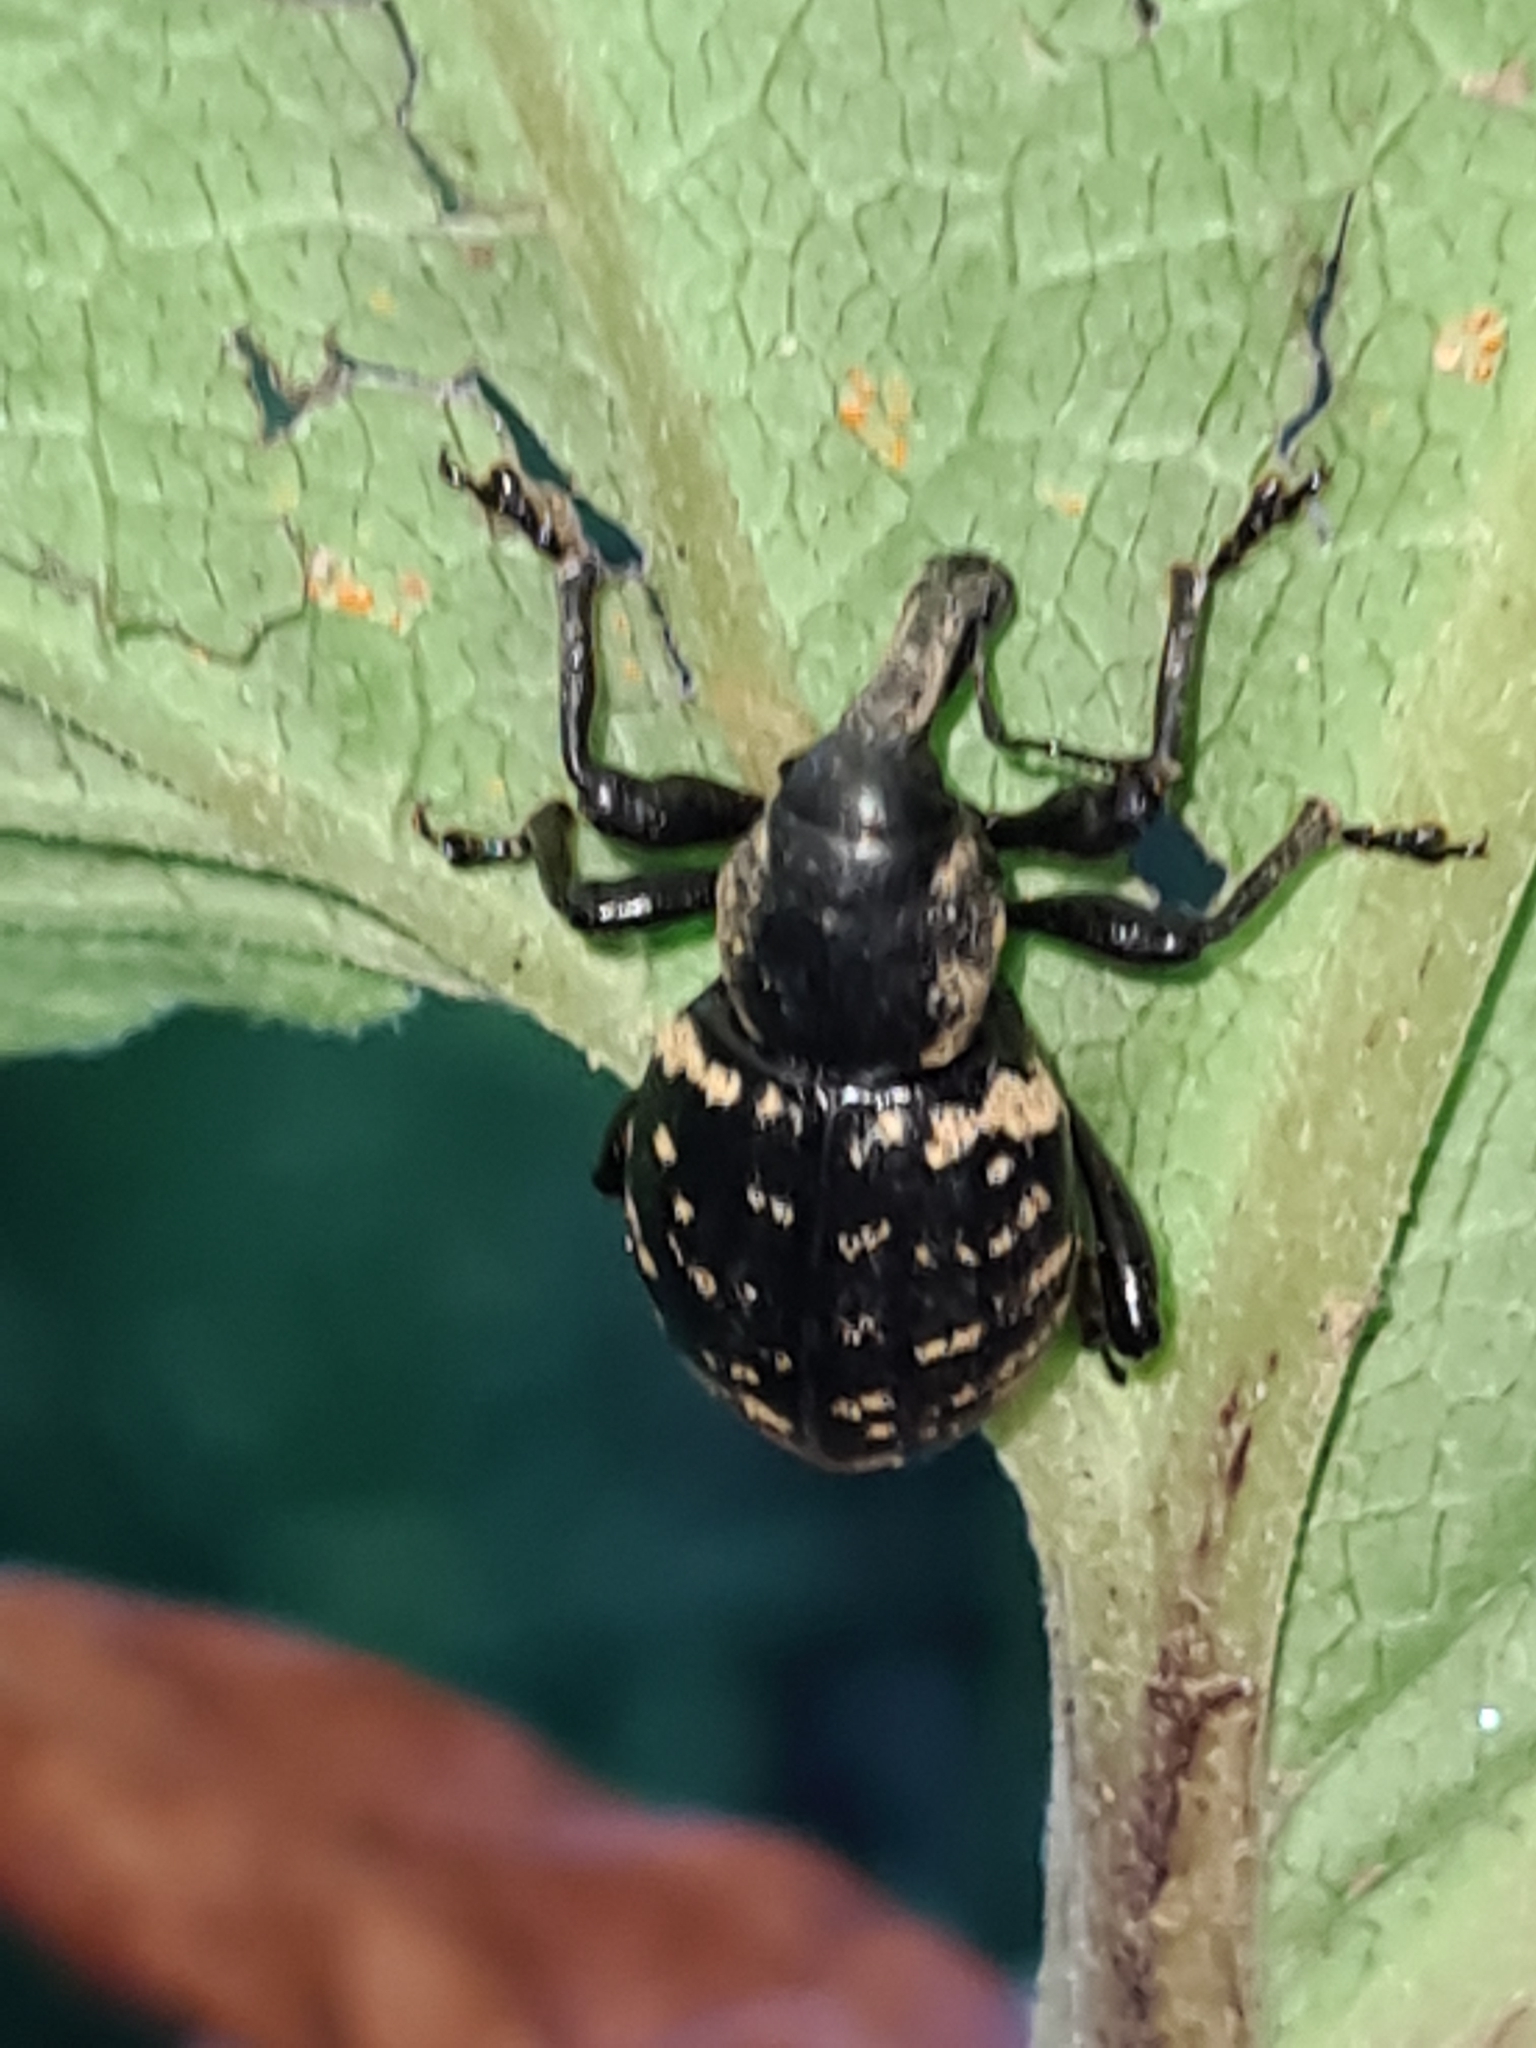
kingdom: Animalia
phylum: Arthropoda
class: Insecta
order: Coleoptera
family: Curculionidae
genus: Liparus
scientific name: Liparus glabrirostris
